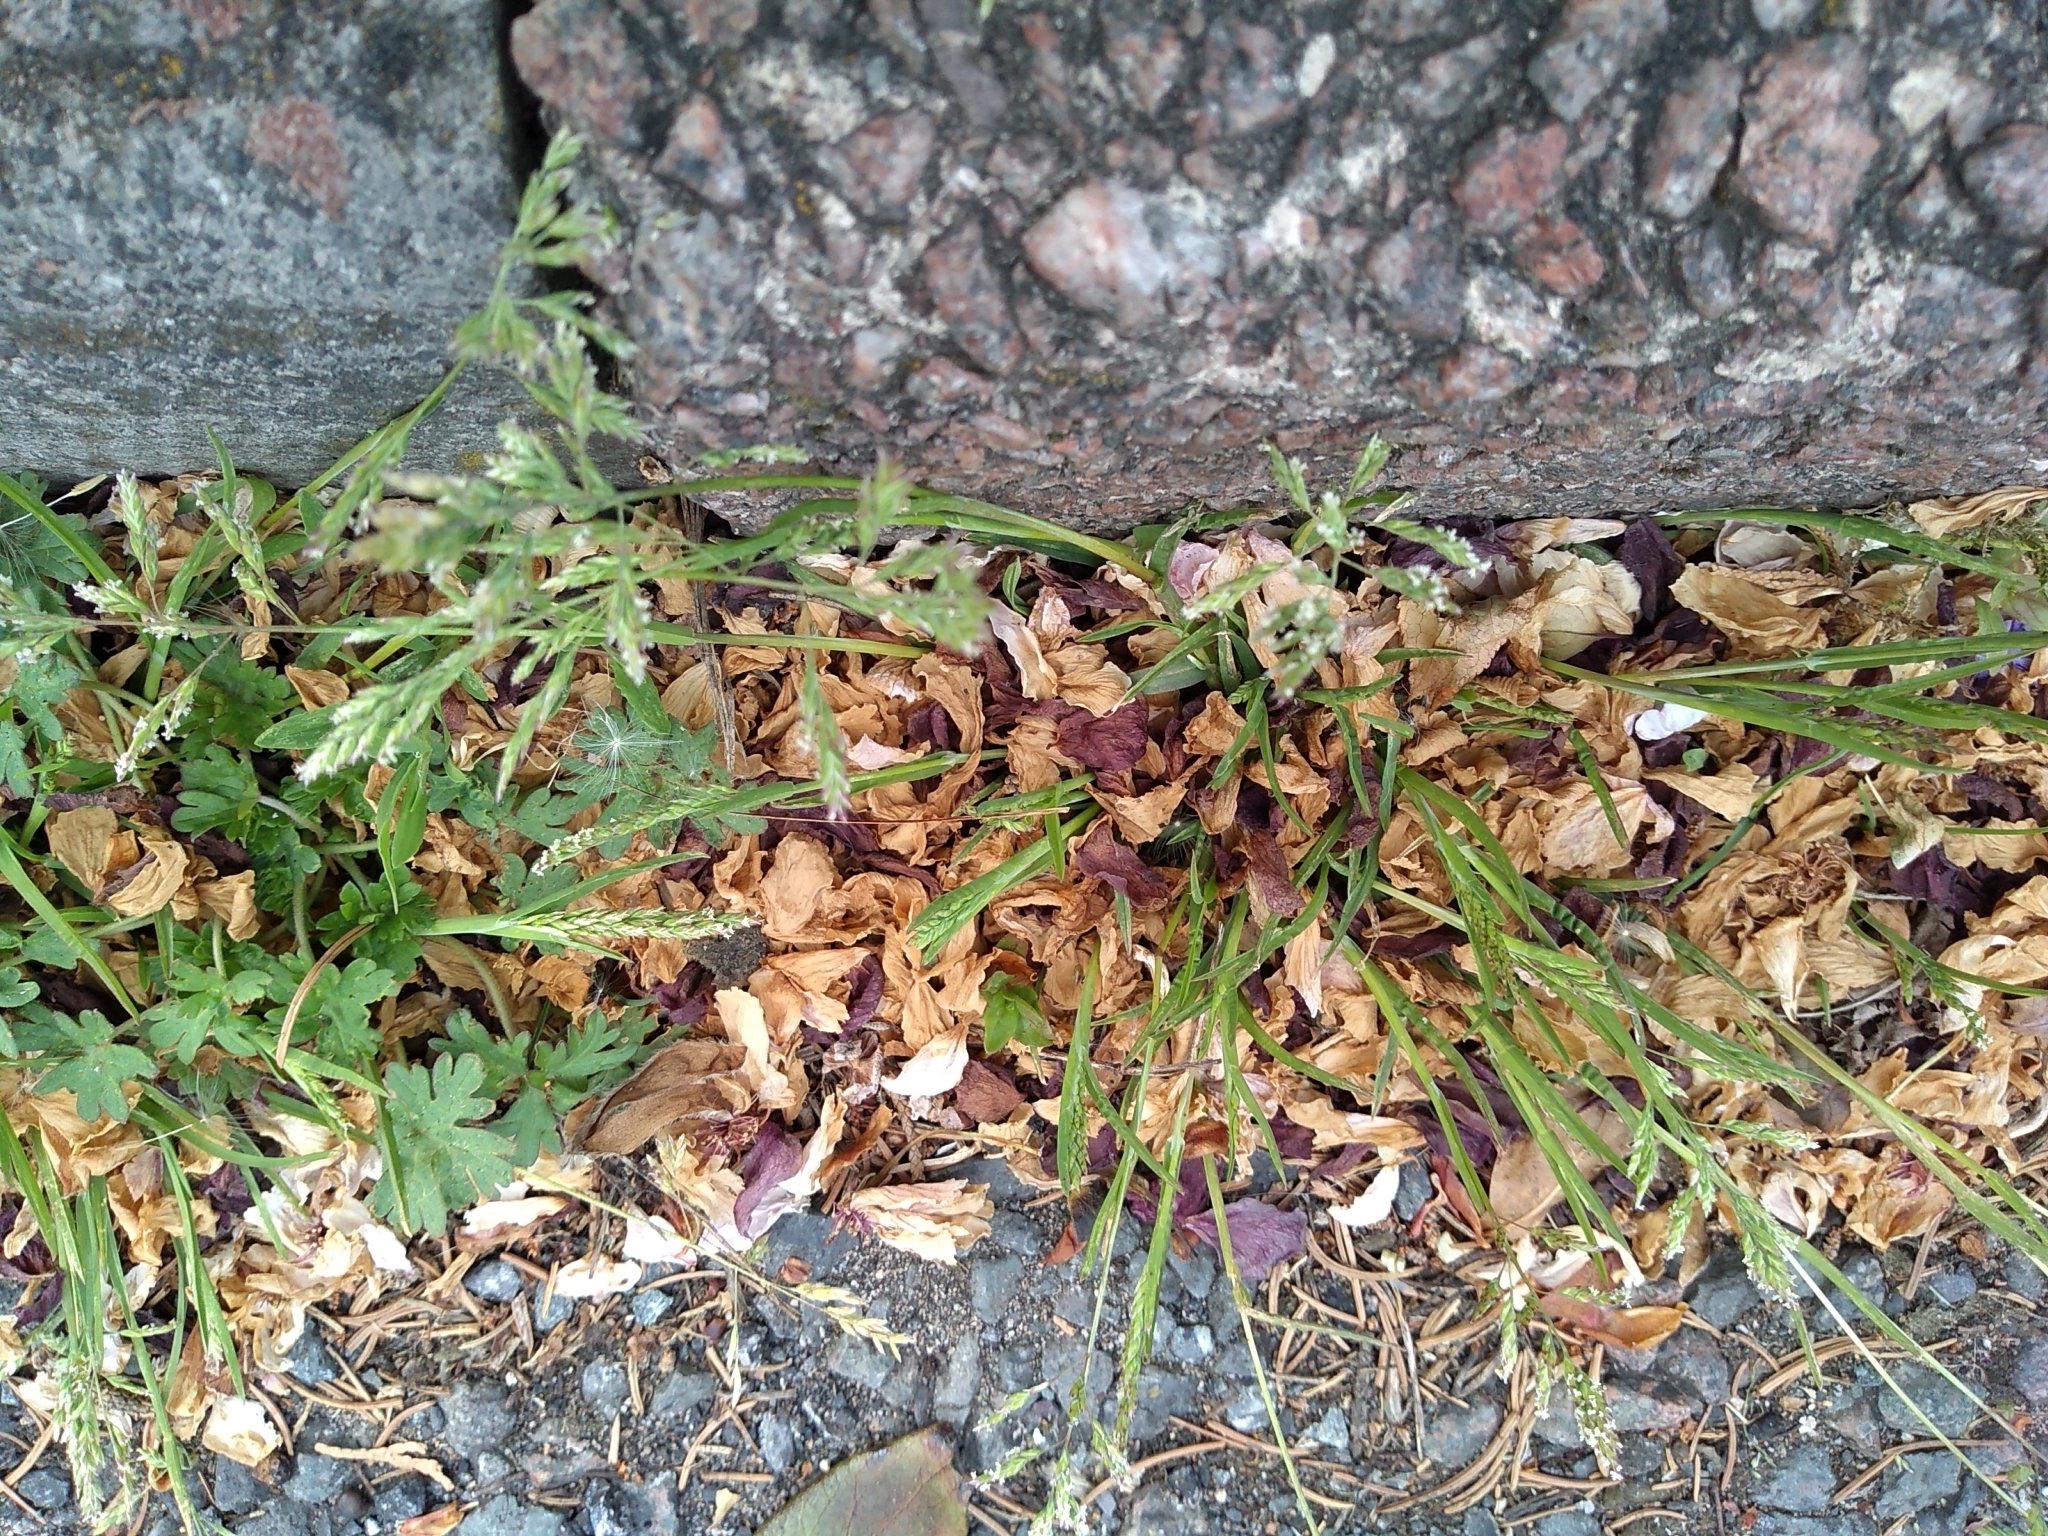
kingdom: Plantae
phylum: Tracheophyta
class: Liliopsida
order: Poales
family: Poaceae
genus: Poa
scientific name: Poa annua
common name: Annual bluegrass
